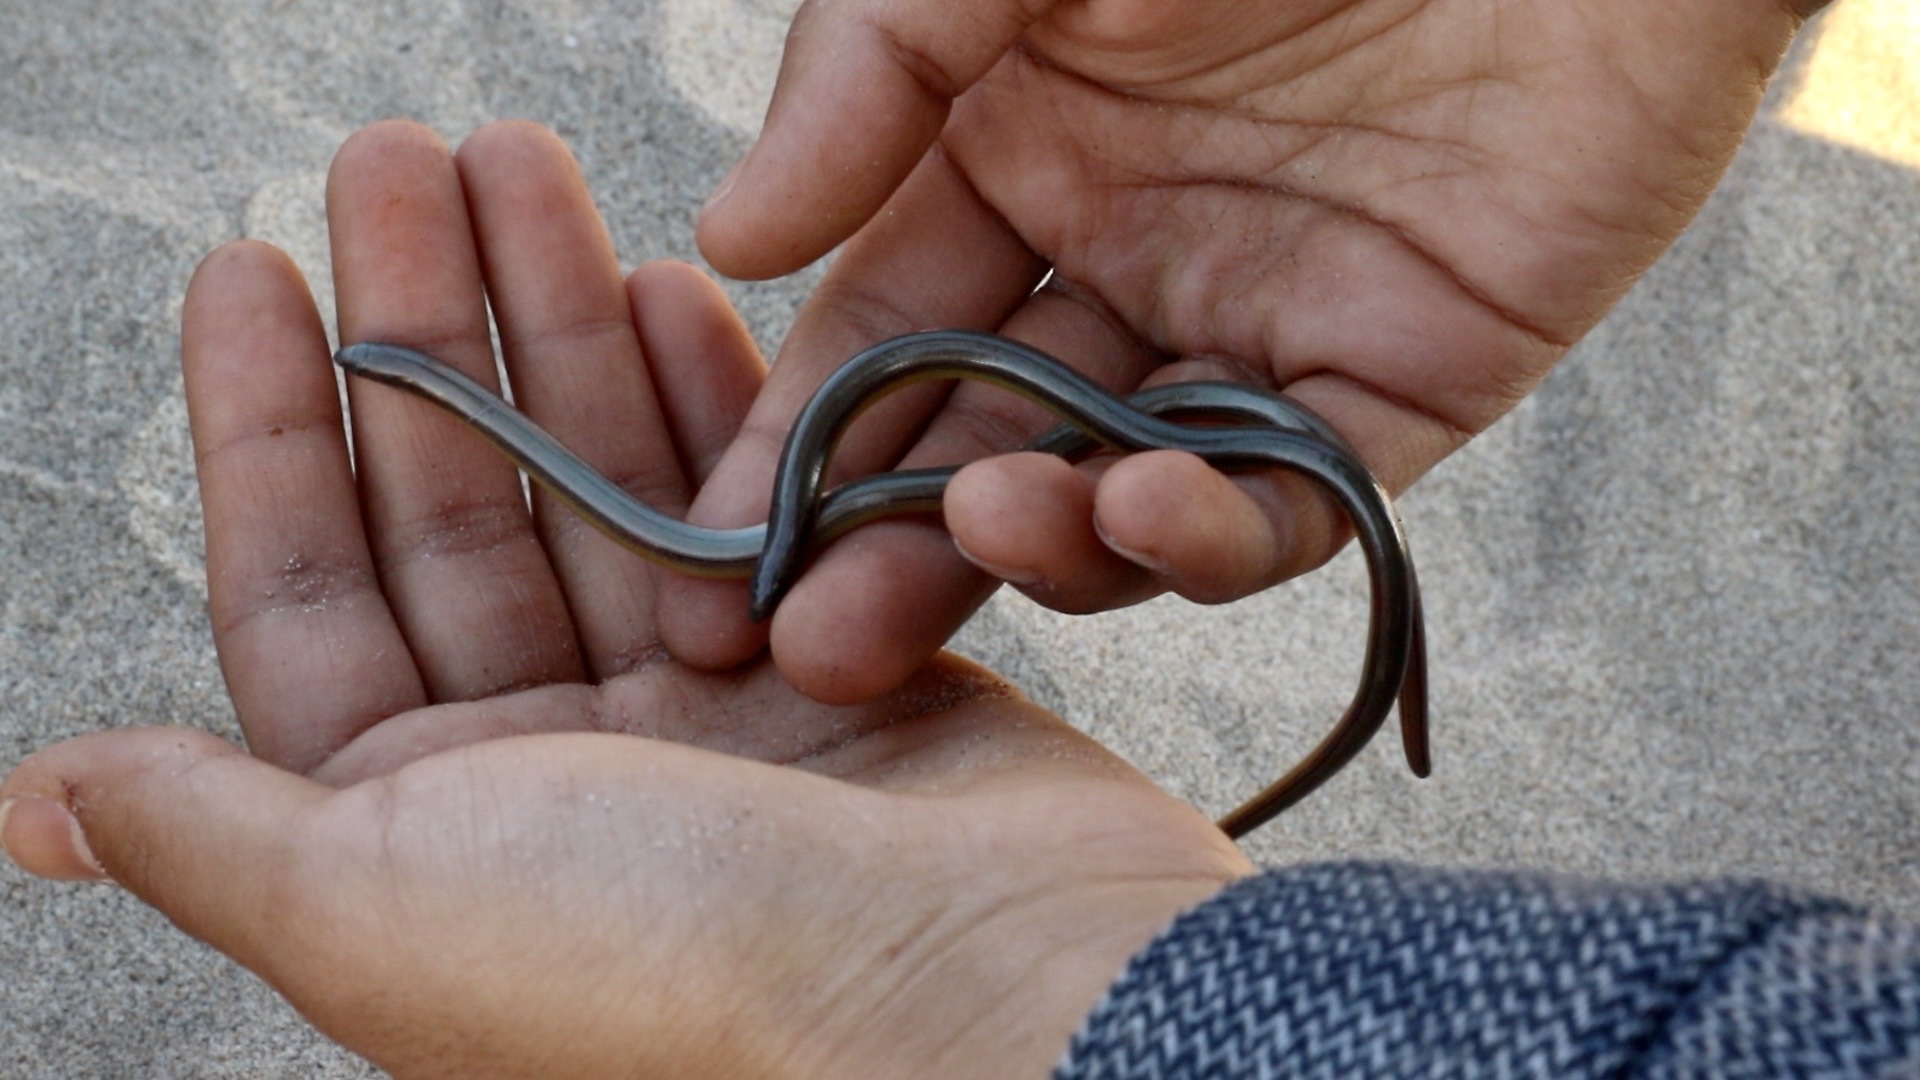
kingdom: Animalia
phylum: Chordata
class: Squamata
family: Anguidae
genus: Anniella
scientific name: Anniella pulchra
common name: California legless lizard
